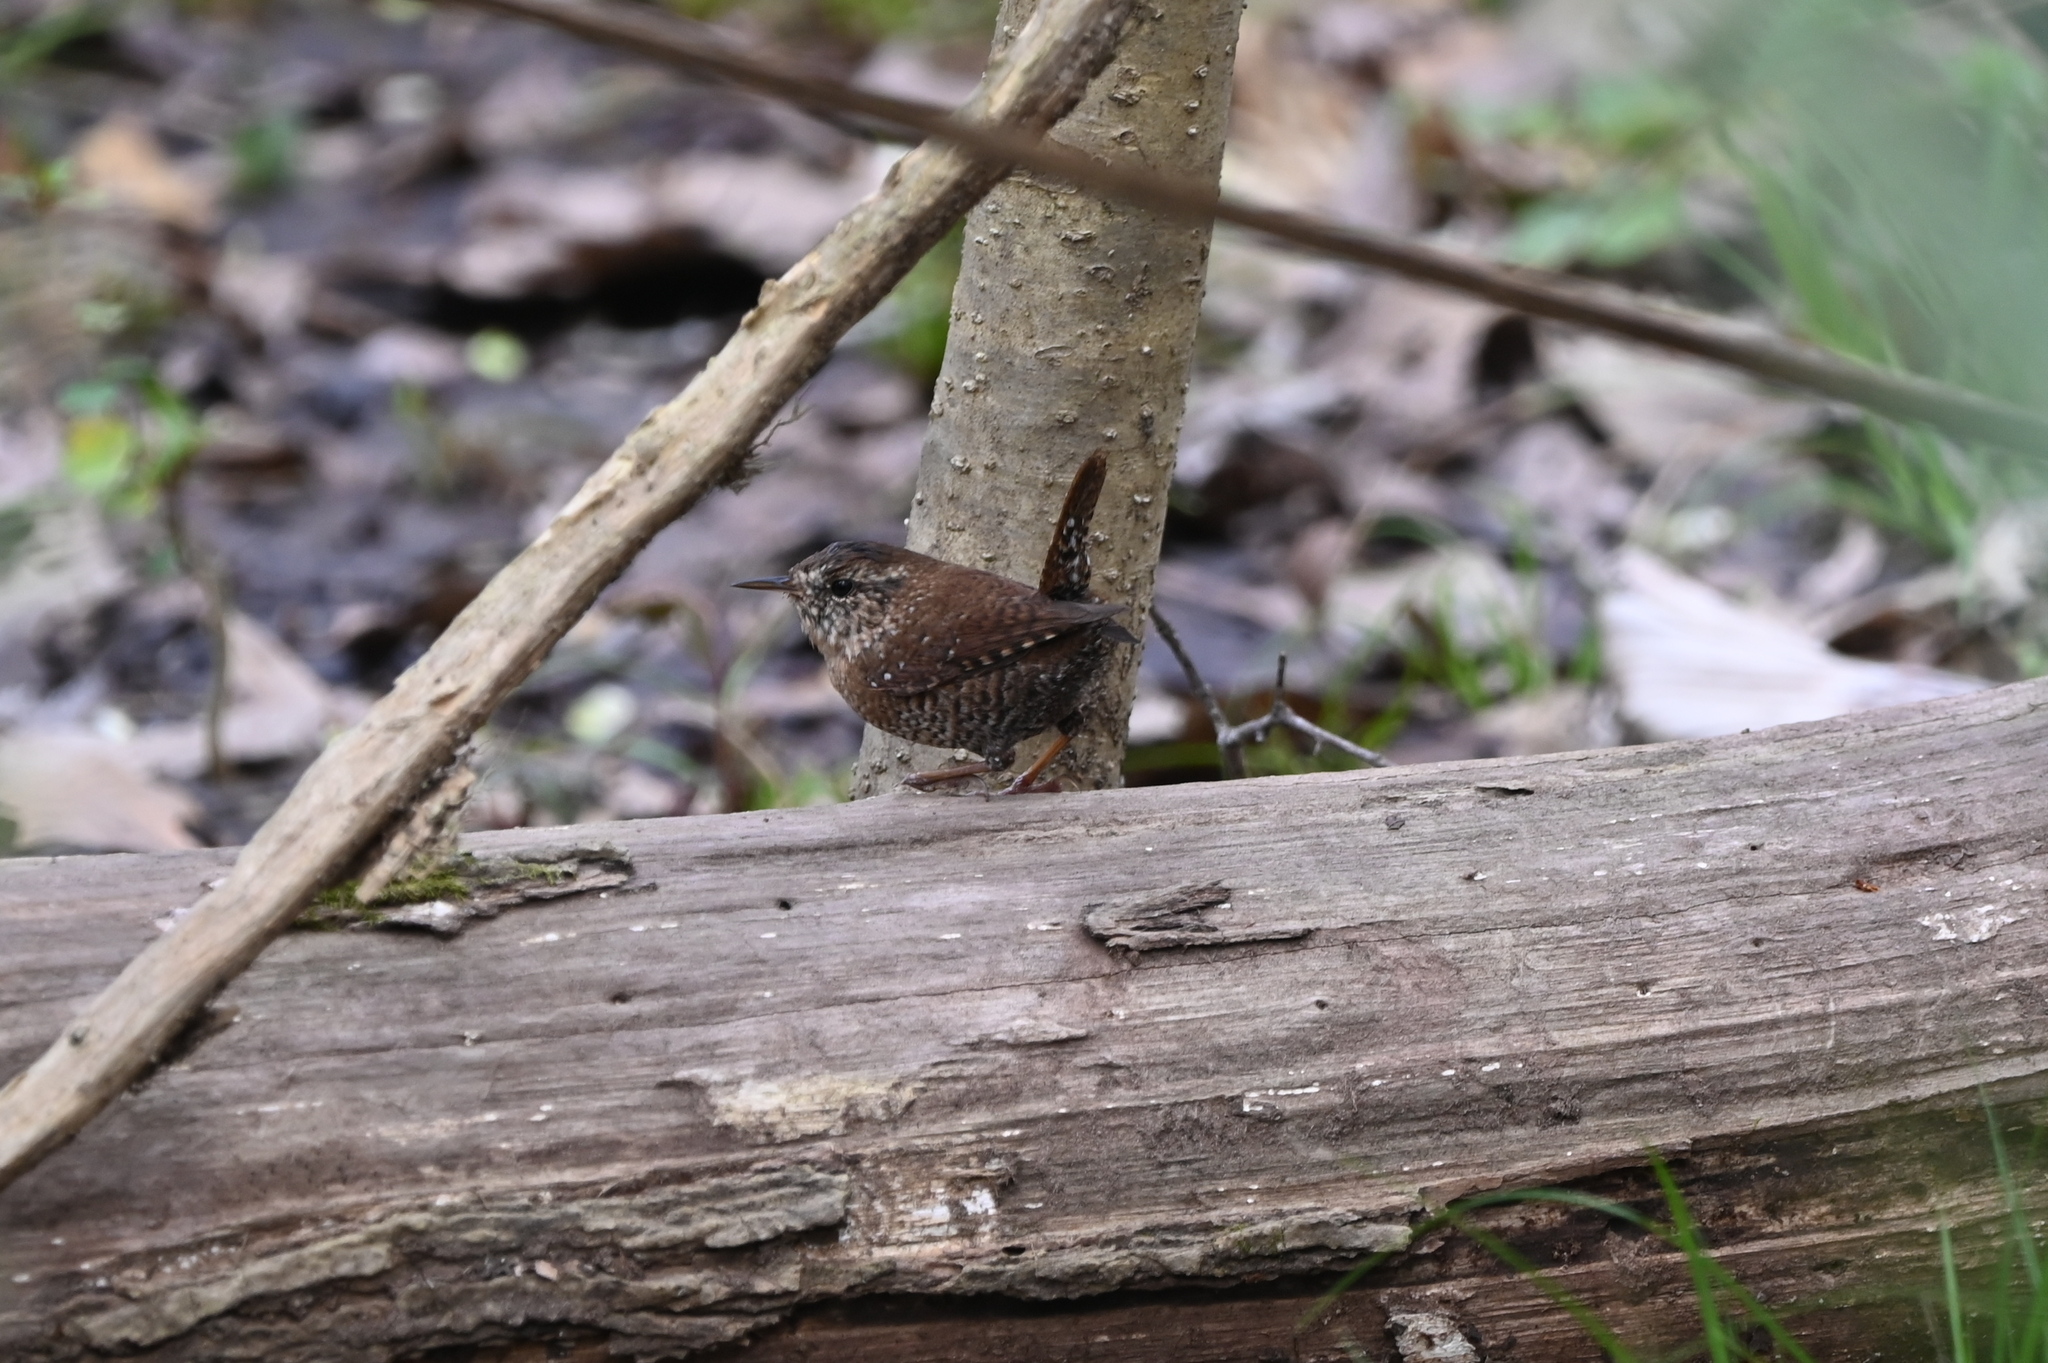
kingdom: Animalia
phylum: Chordata
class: Aves
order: Passeriformes
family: Troglodytidae
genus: Troglodytes
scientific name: Troglodytes hiemalis
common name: Winter wren
